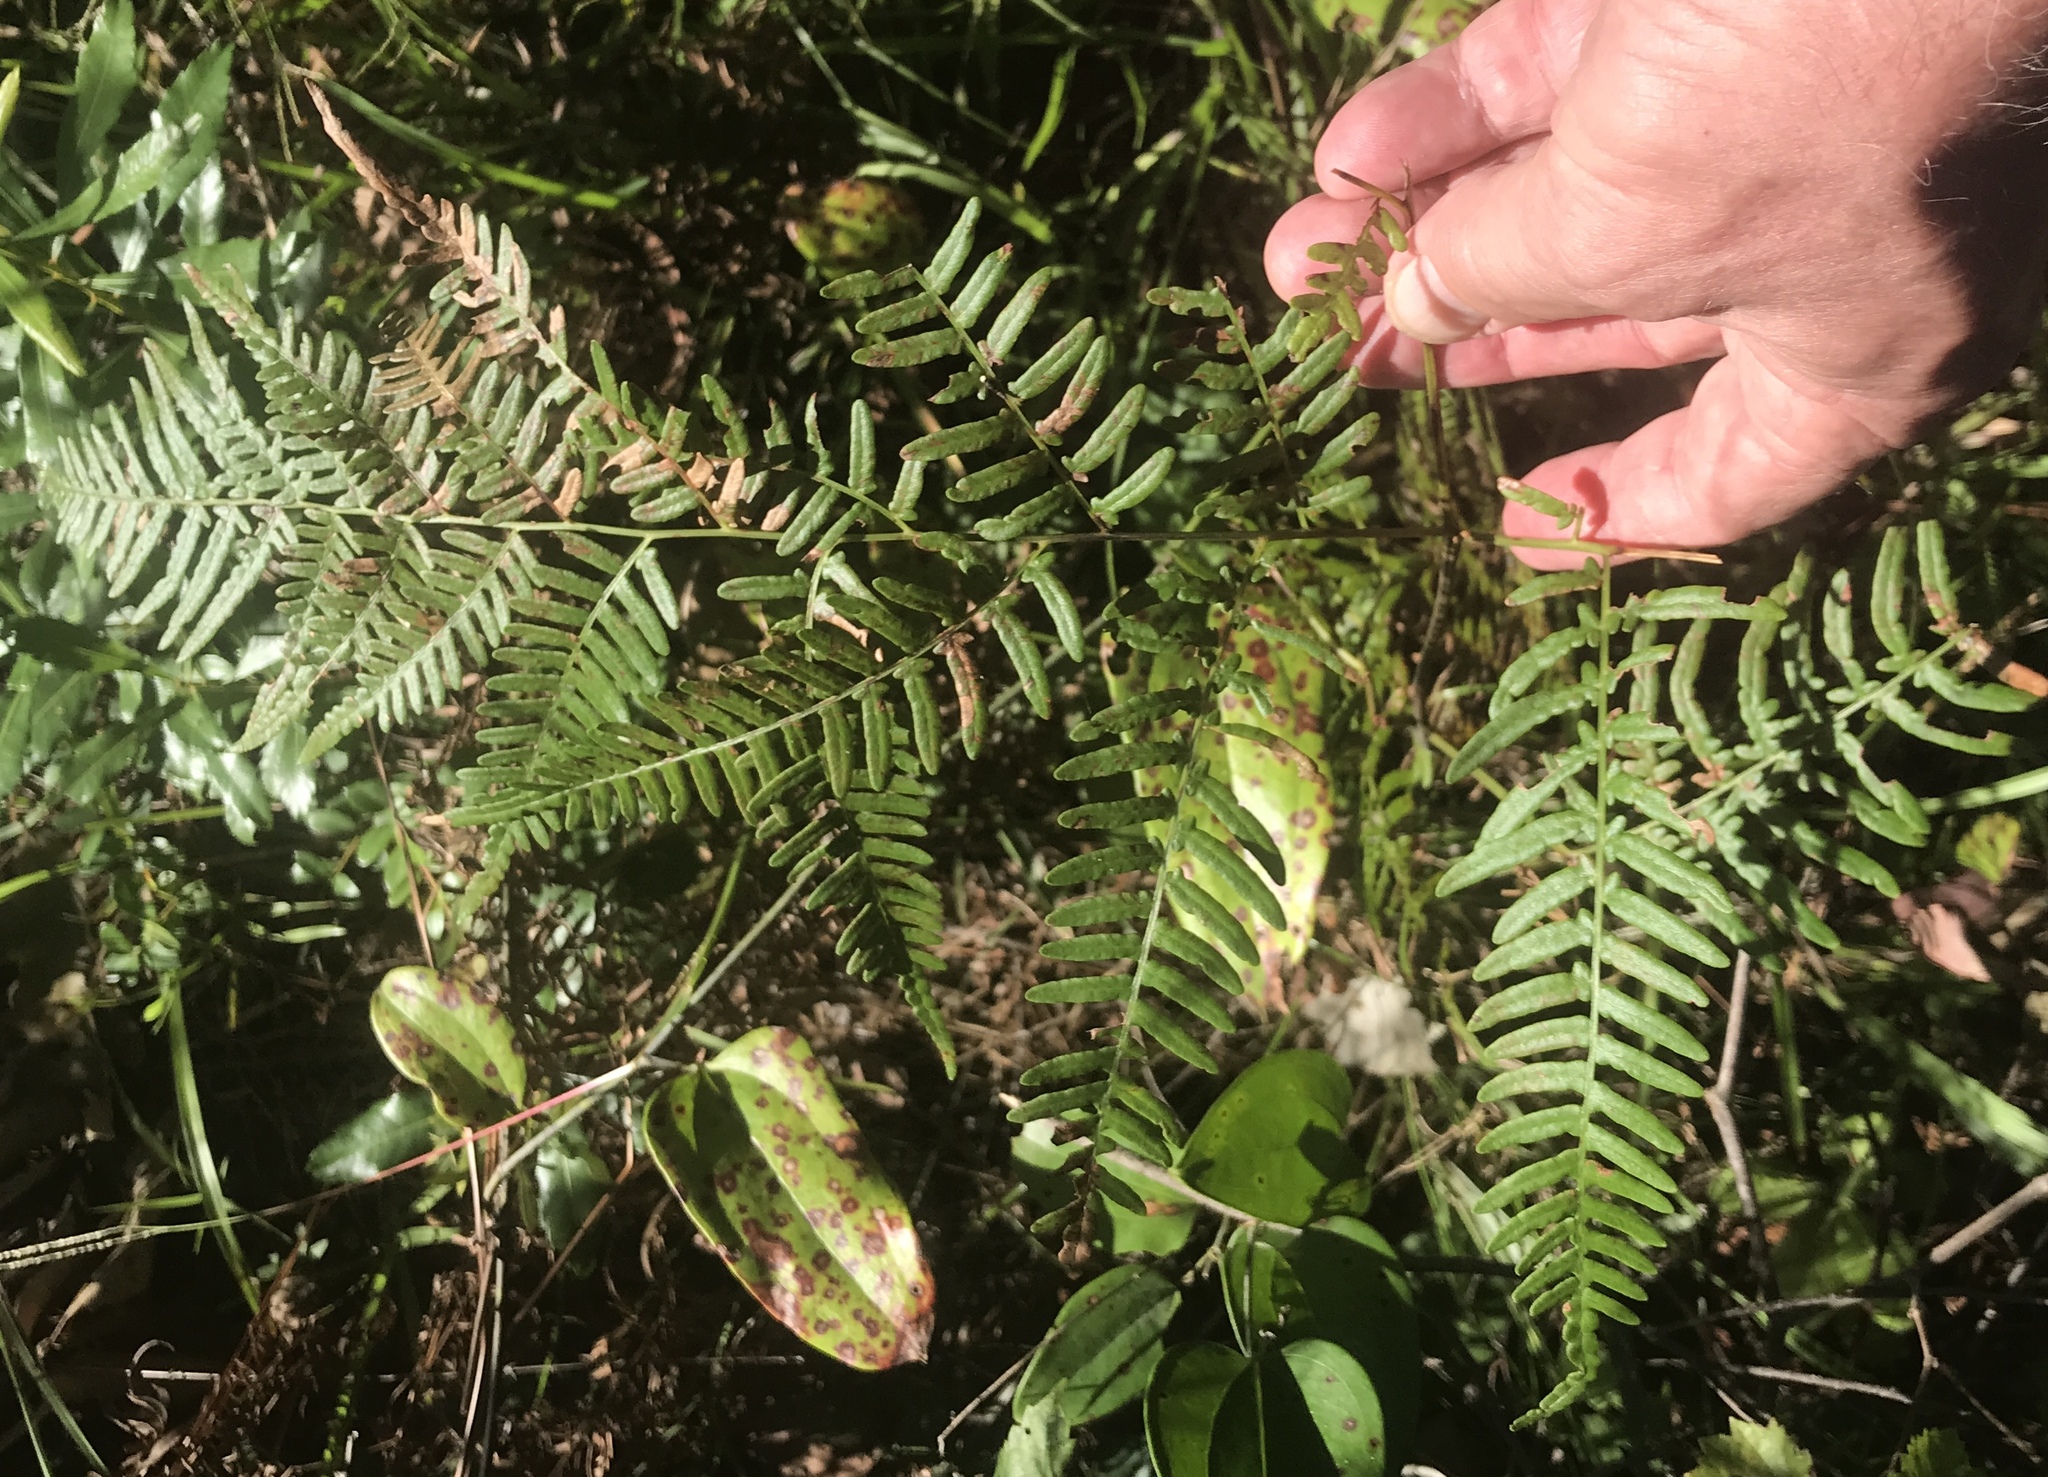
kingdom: Plantae
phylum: Tracheophyta
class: Polypodiopsida
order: Polypodiales
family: Dennstaedtiaceae
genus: Pteridium
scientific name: Pteridium
